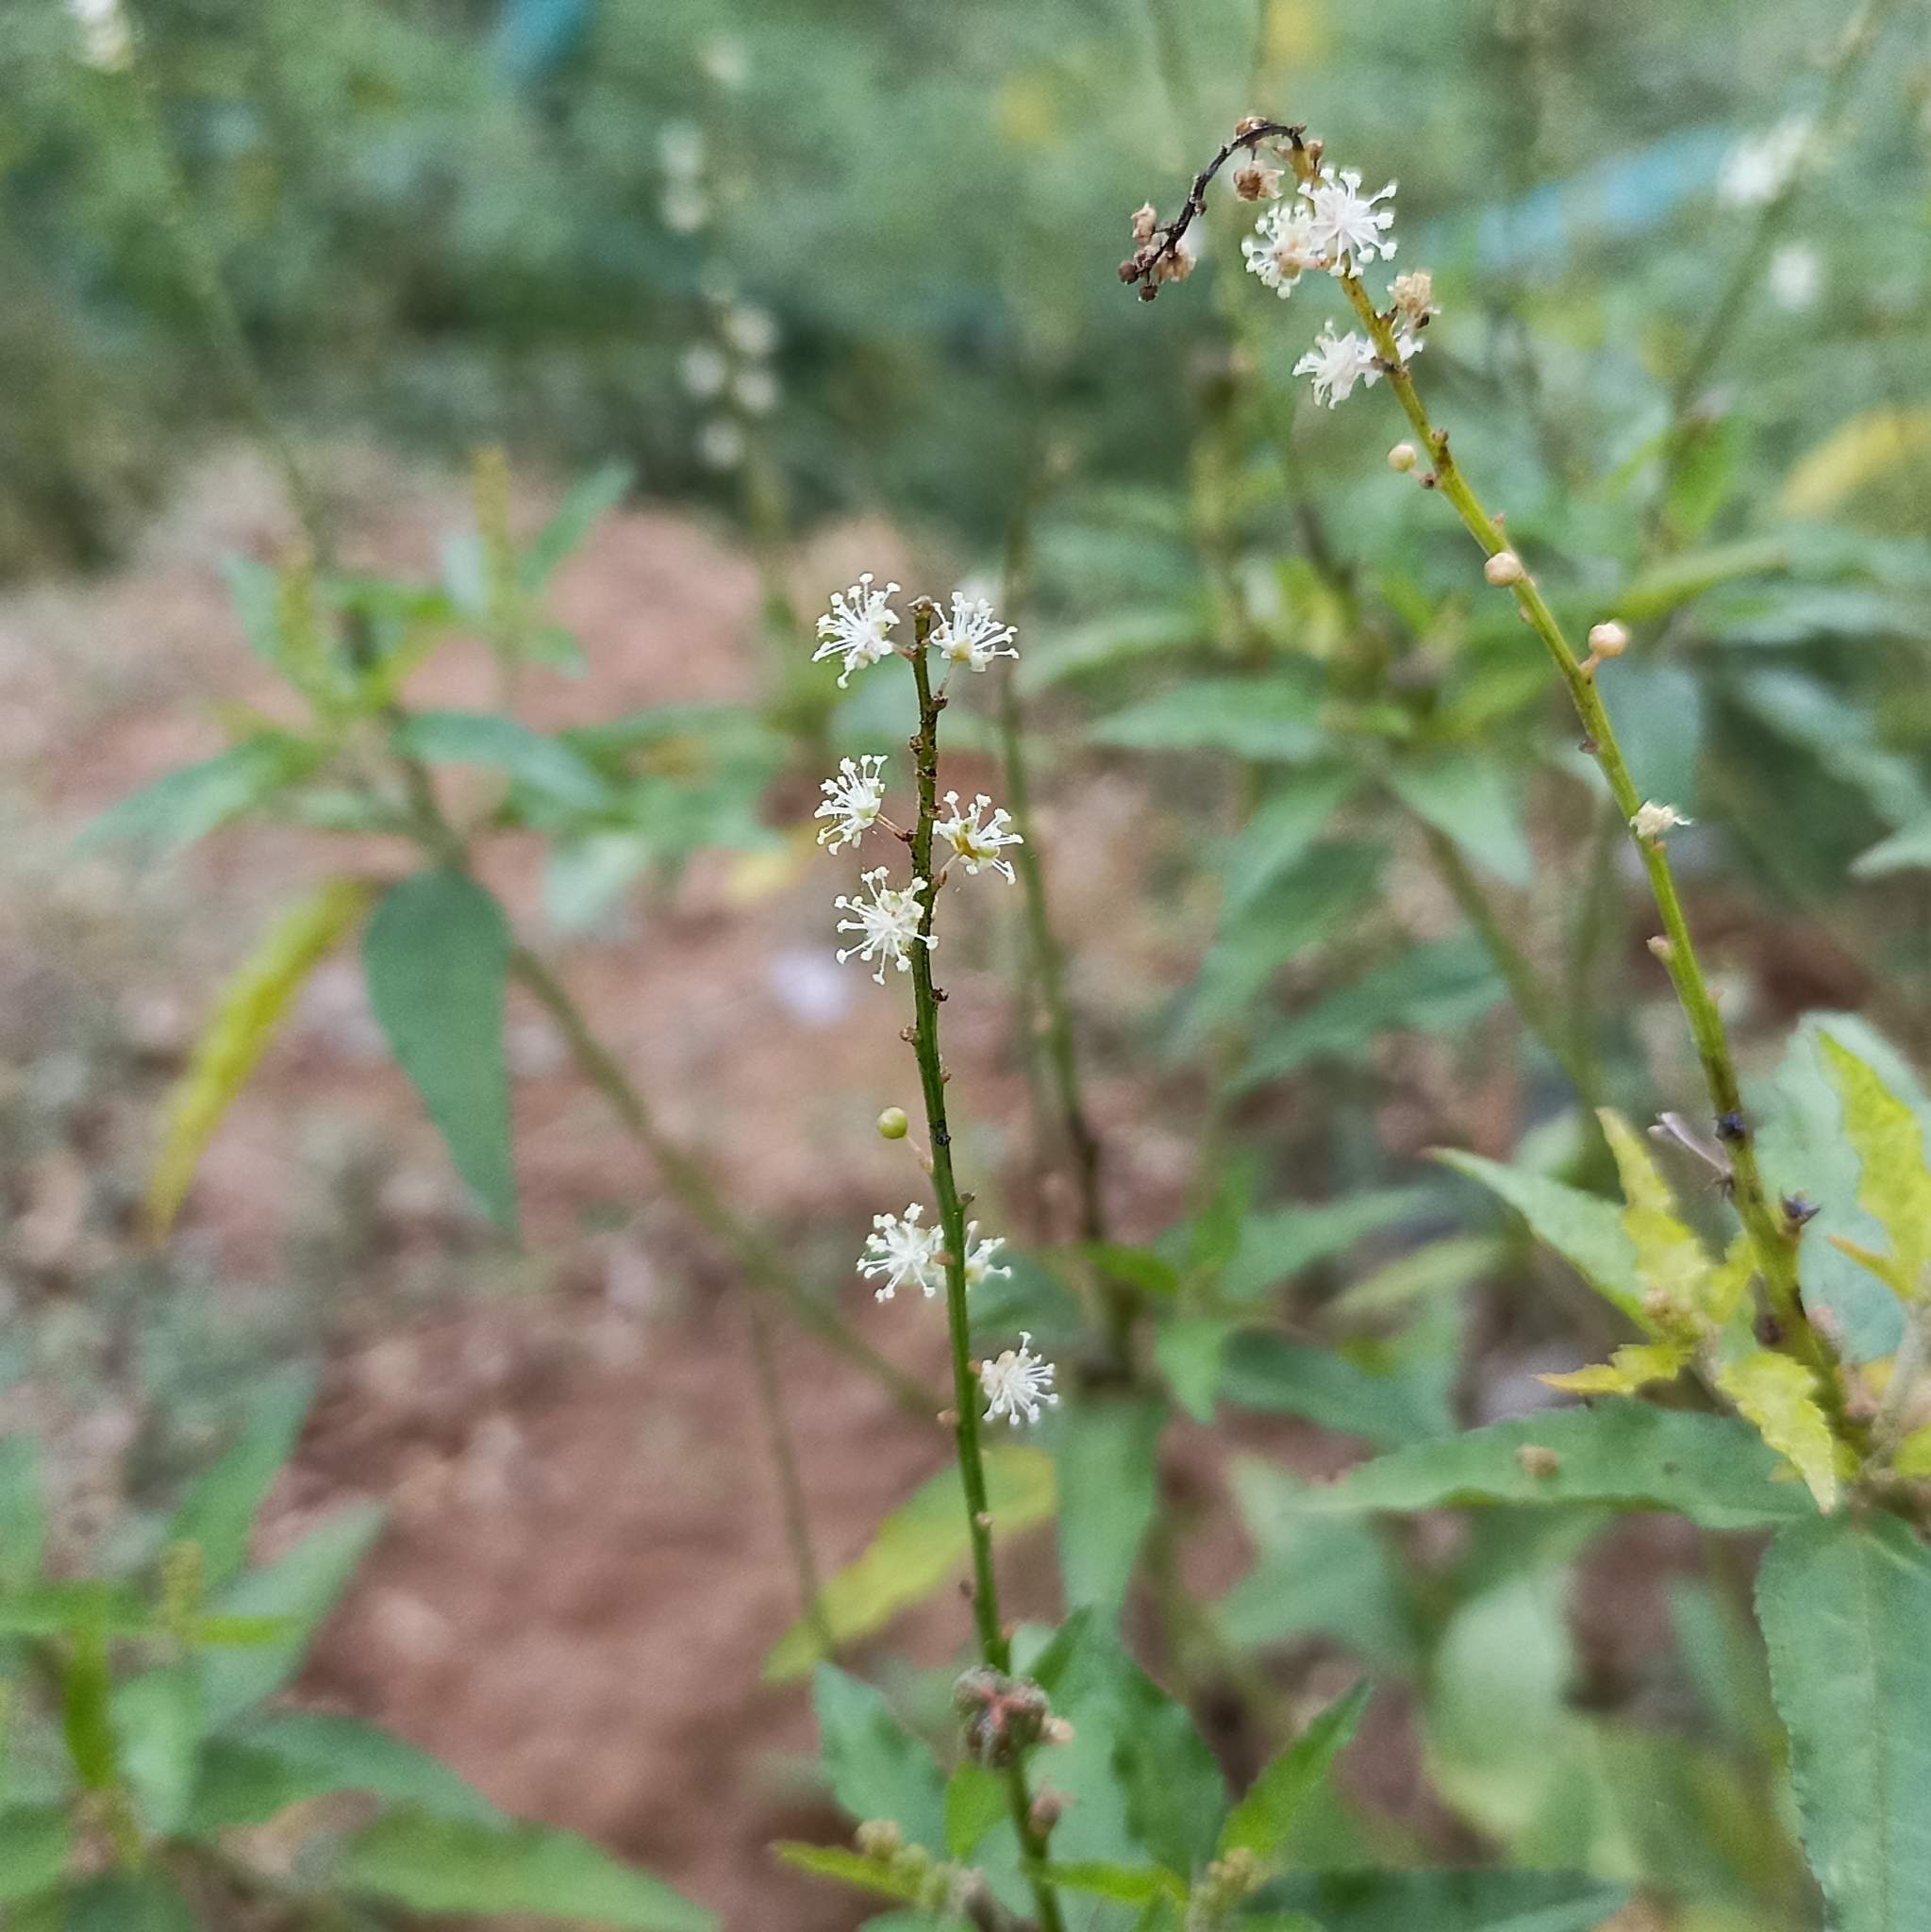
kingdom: Plantae
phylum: Tracheophyta
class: Magnoliopsida
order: Malpighiales
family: Euphorbiaceae
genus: Croton
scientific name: Croton bonplandianus
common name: Bonpland's croton
